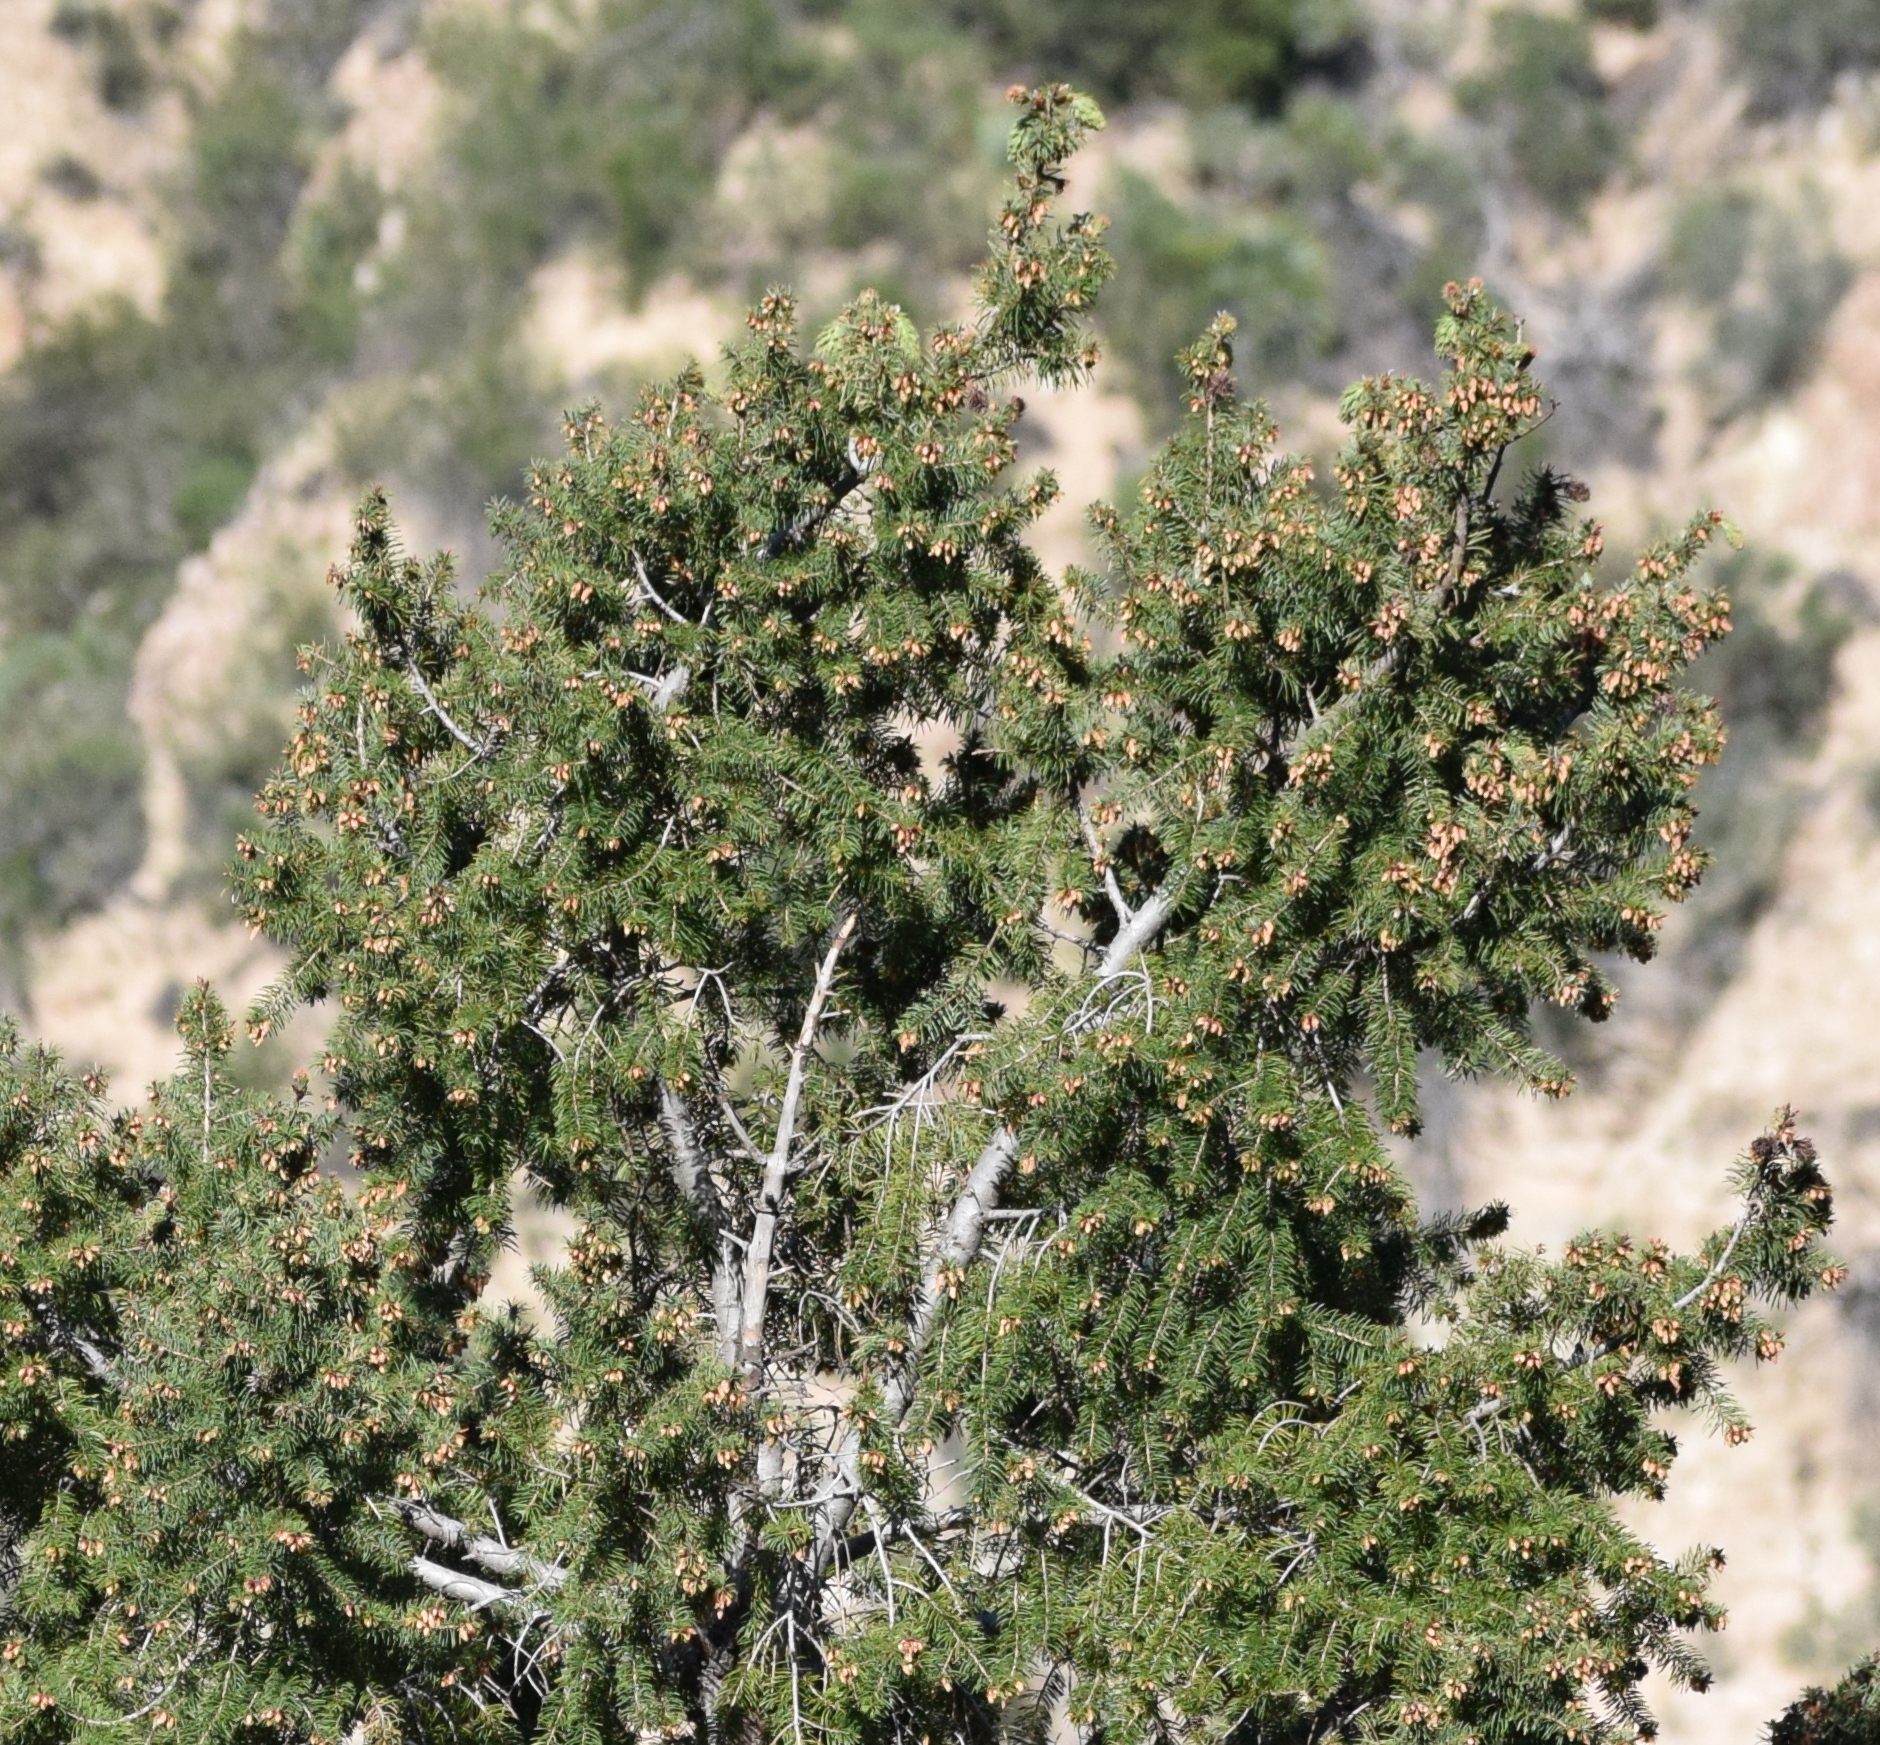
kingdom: Plantae
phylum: Tracheophyta
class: Pinopsida
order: Pinales
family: Pinaceae
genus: Pseudotsuga
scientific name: Pseudotsuga macrocarpa
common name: Big-cone douglas-fir
